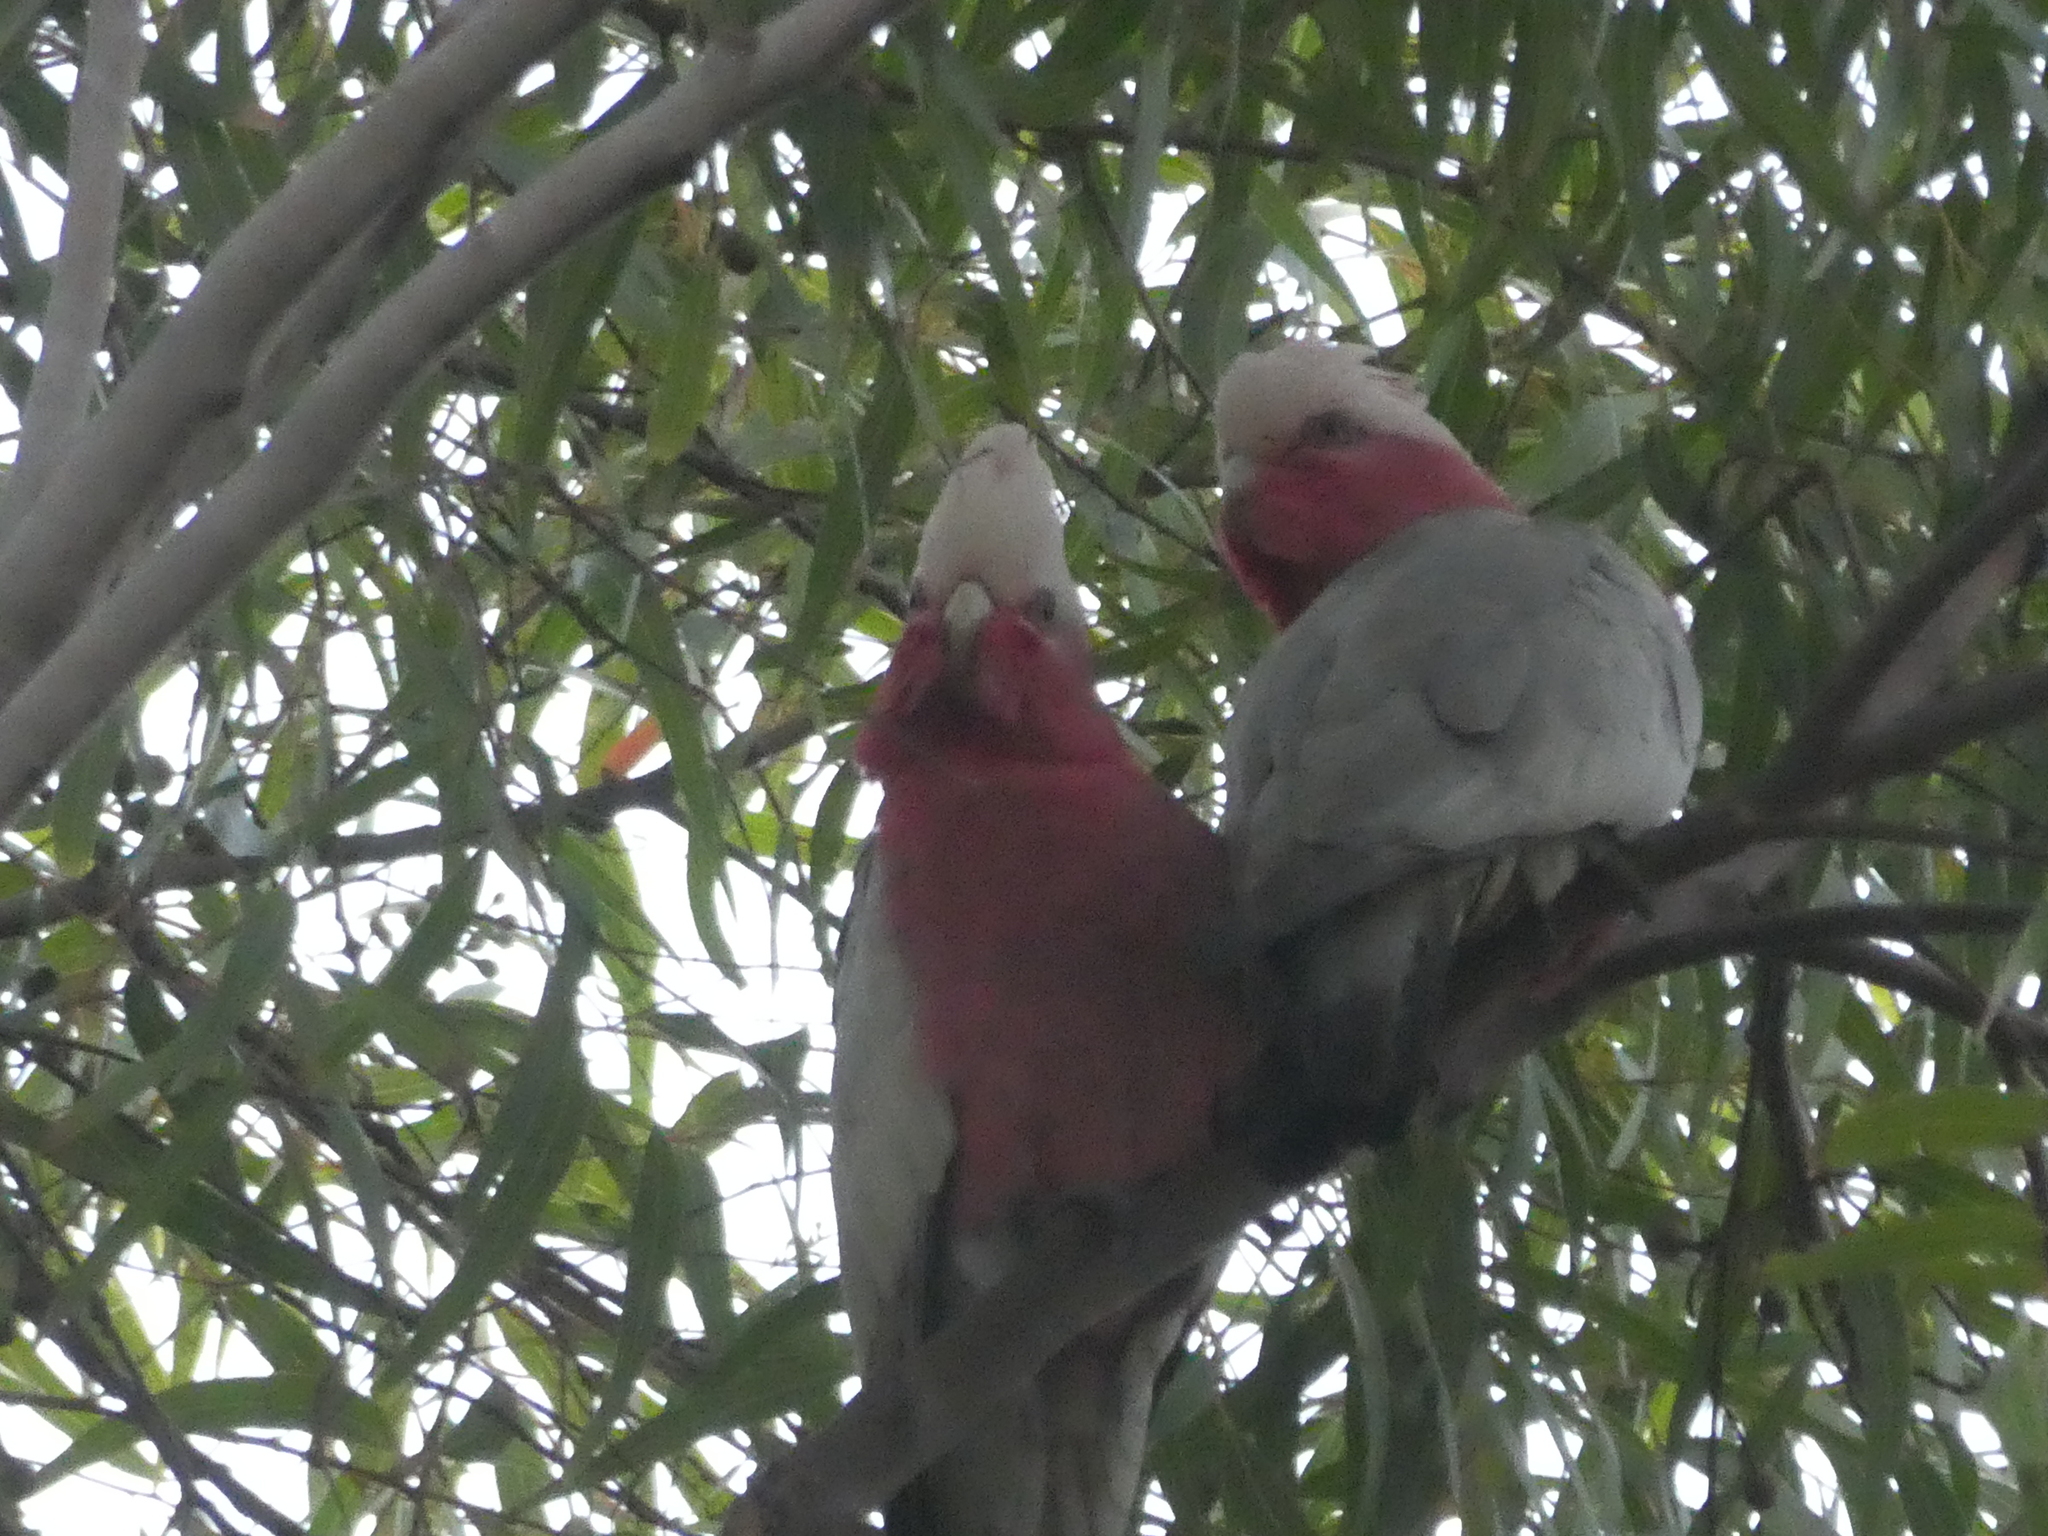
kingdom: Animalia
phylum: Chordata
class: Aves
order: Psittaciformes
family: Psittacidae
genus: Eolophus
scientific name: Eolophus roseicapilla
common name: Galah
